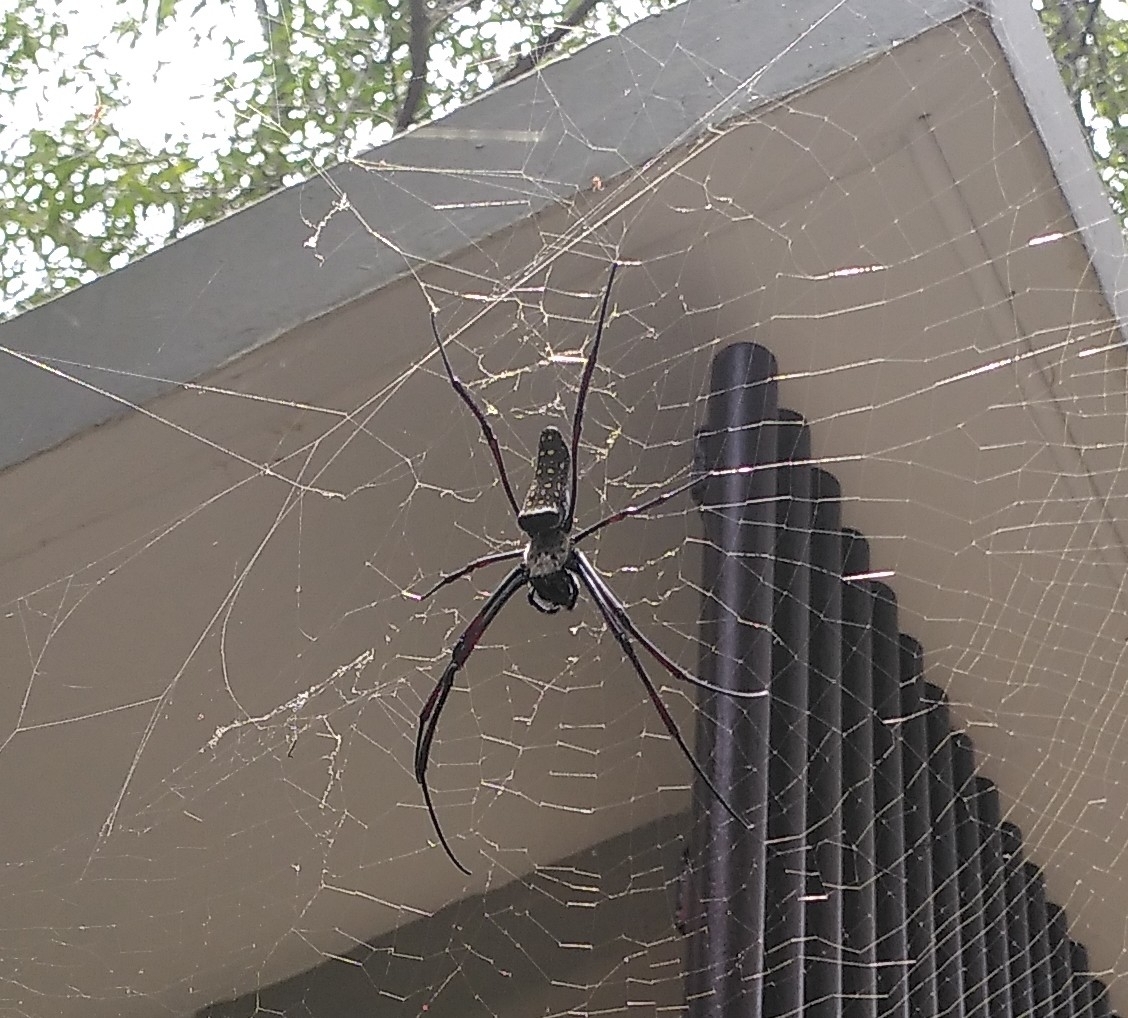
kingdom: Animalia
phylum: Arthropoda
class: Arachnida
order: Araneae
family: Araneidae
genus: Trichonephila
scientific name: Trichonephila antipodiana
